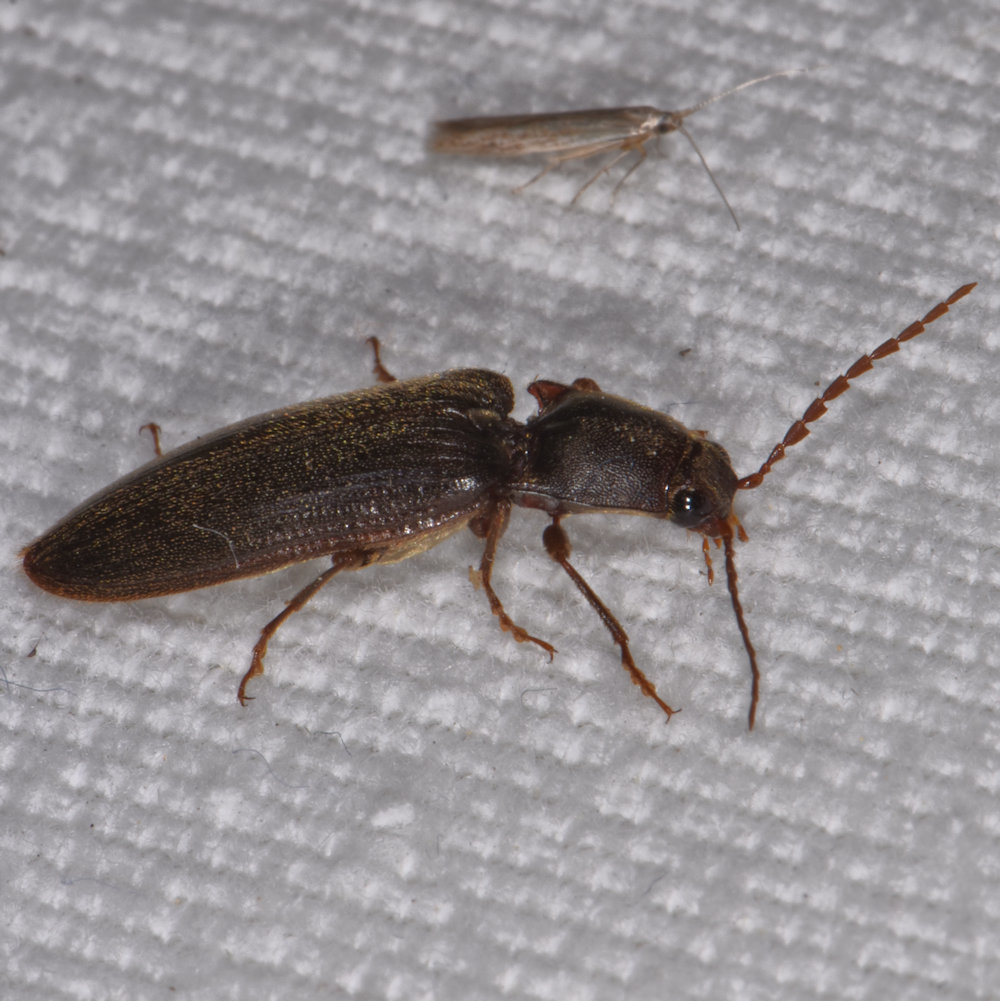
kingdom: Animalia
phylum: Arthropoda
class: Insecta
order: Coleoptera
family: Elateridae
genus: Hemicrepidius
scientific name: Hemicrepidius
